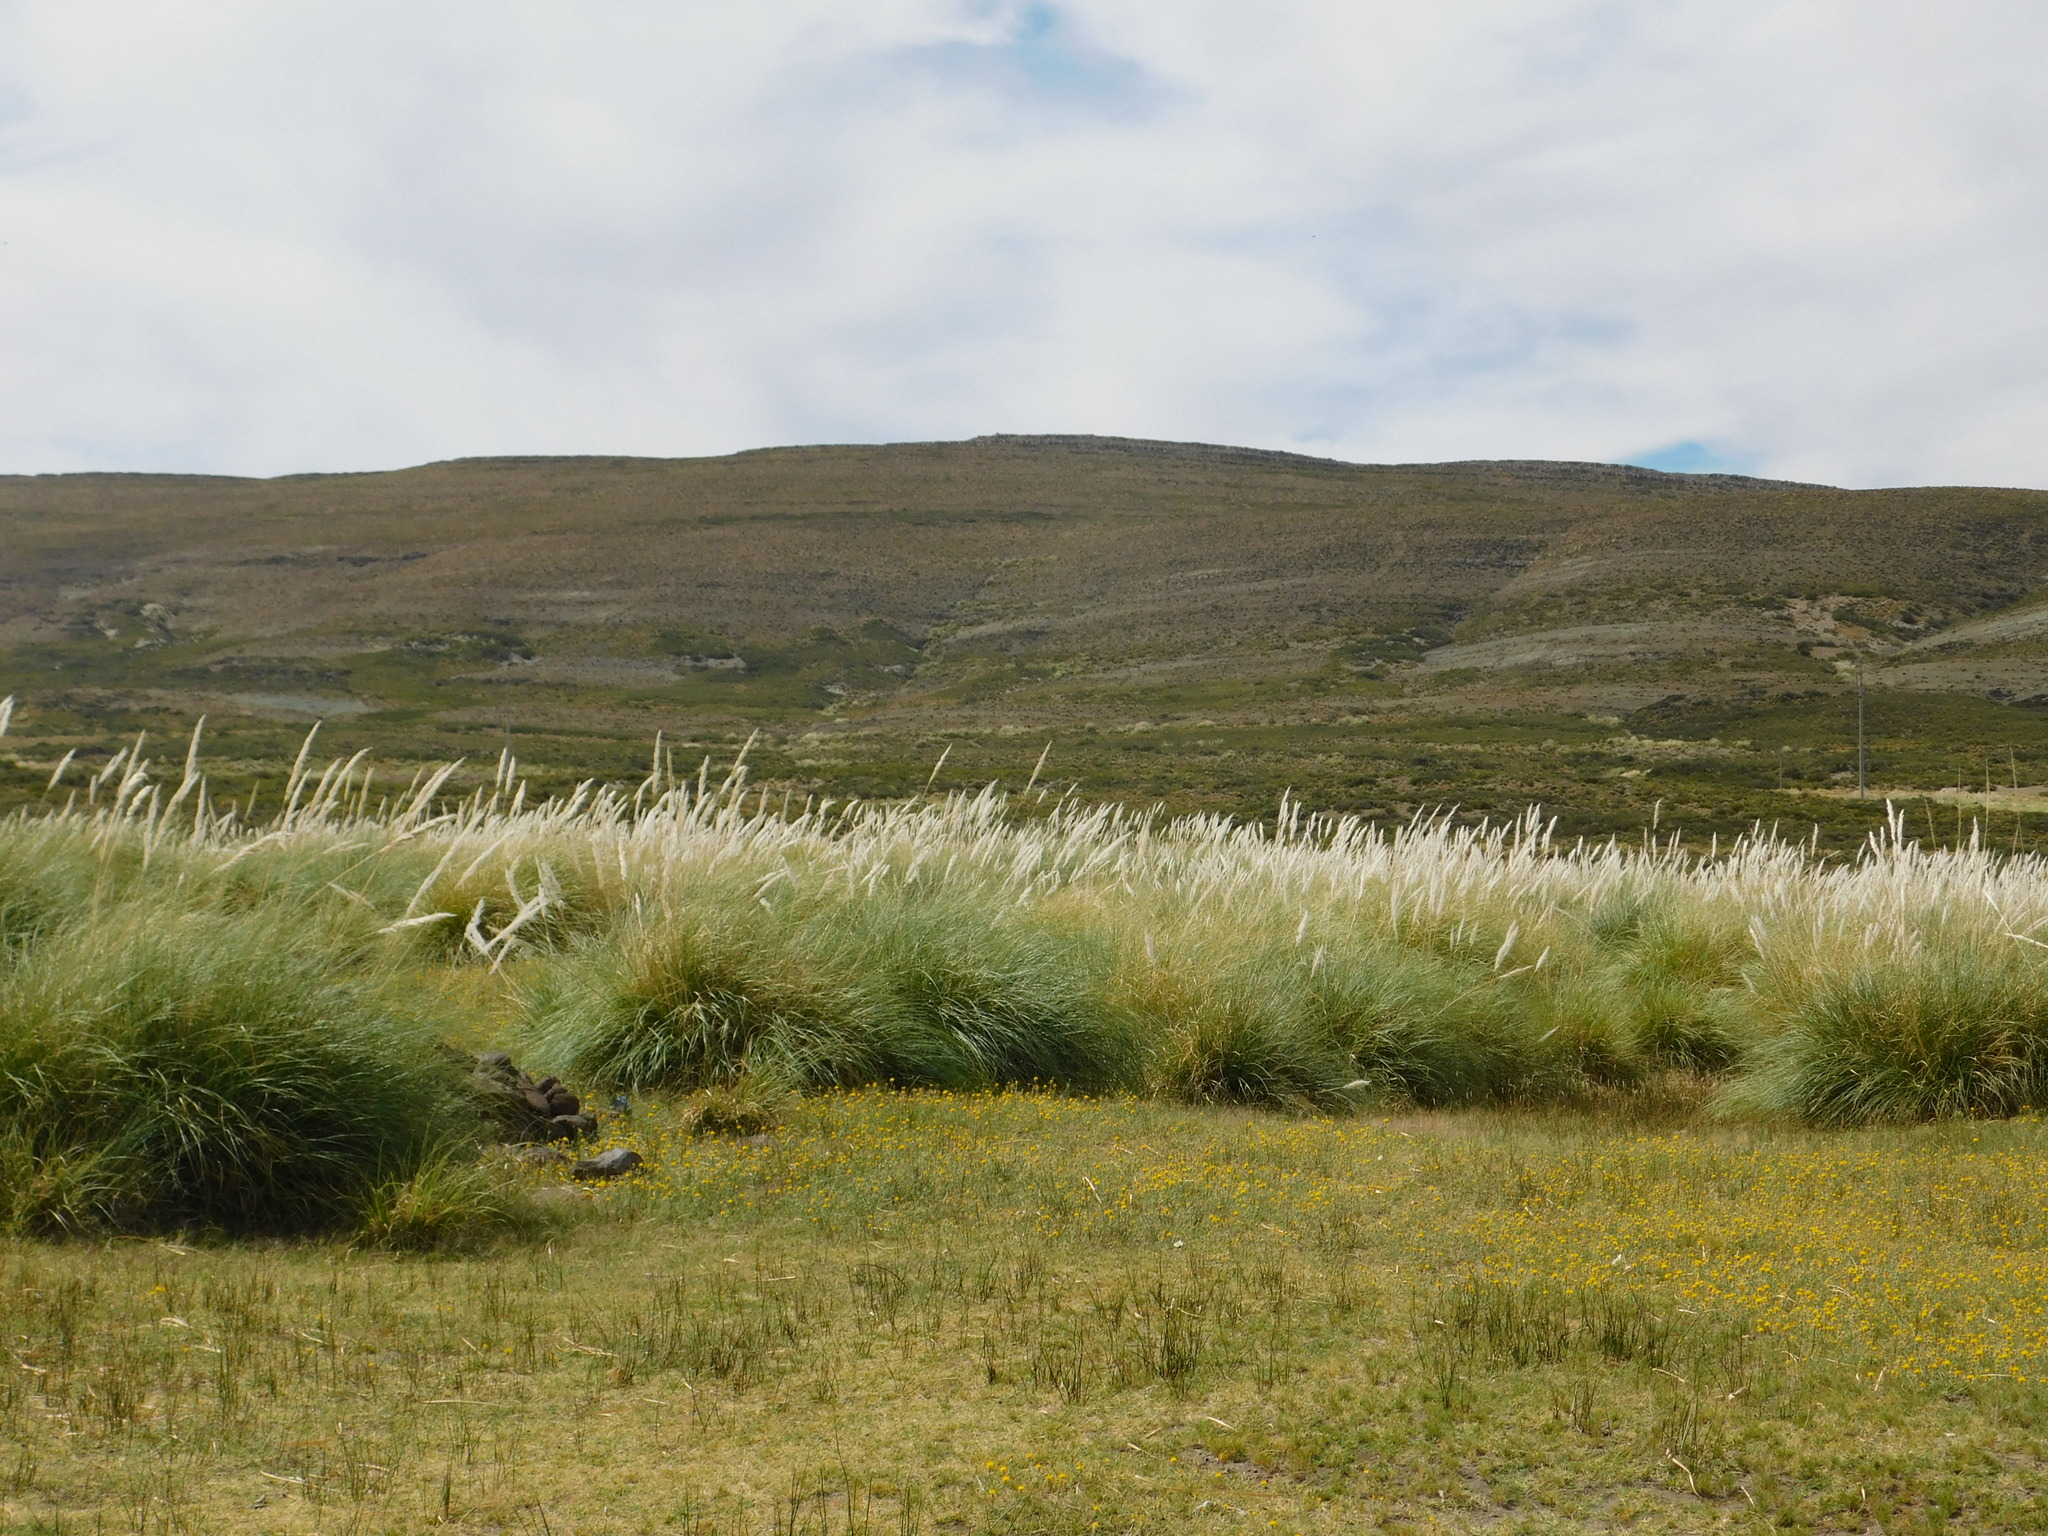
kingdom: Plantae
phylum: Tracheophyta
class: Liliopsida
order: Poales
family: Poaceae
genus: Cortaderia
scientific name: Cortaderia selloana
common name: Uruguayan pampas grass
